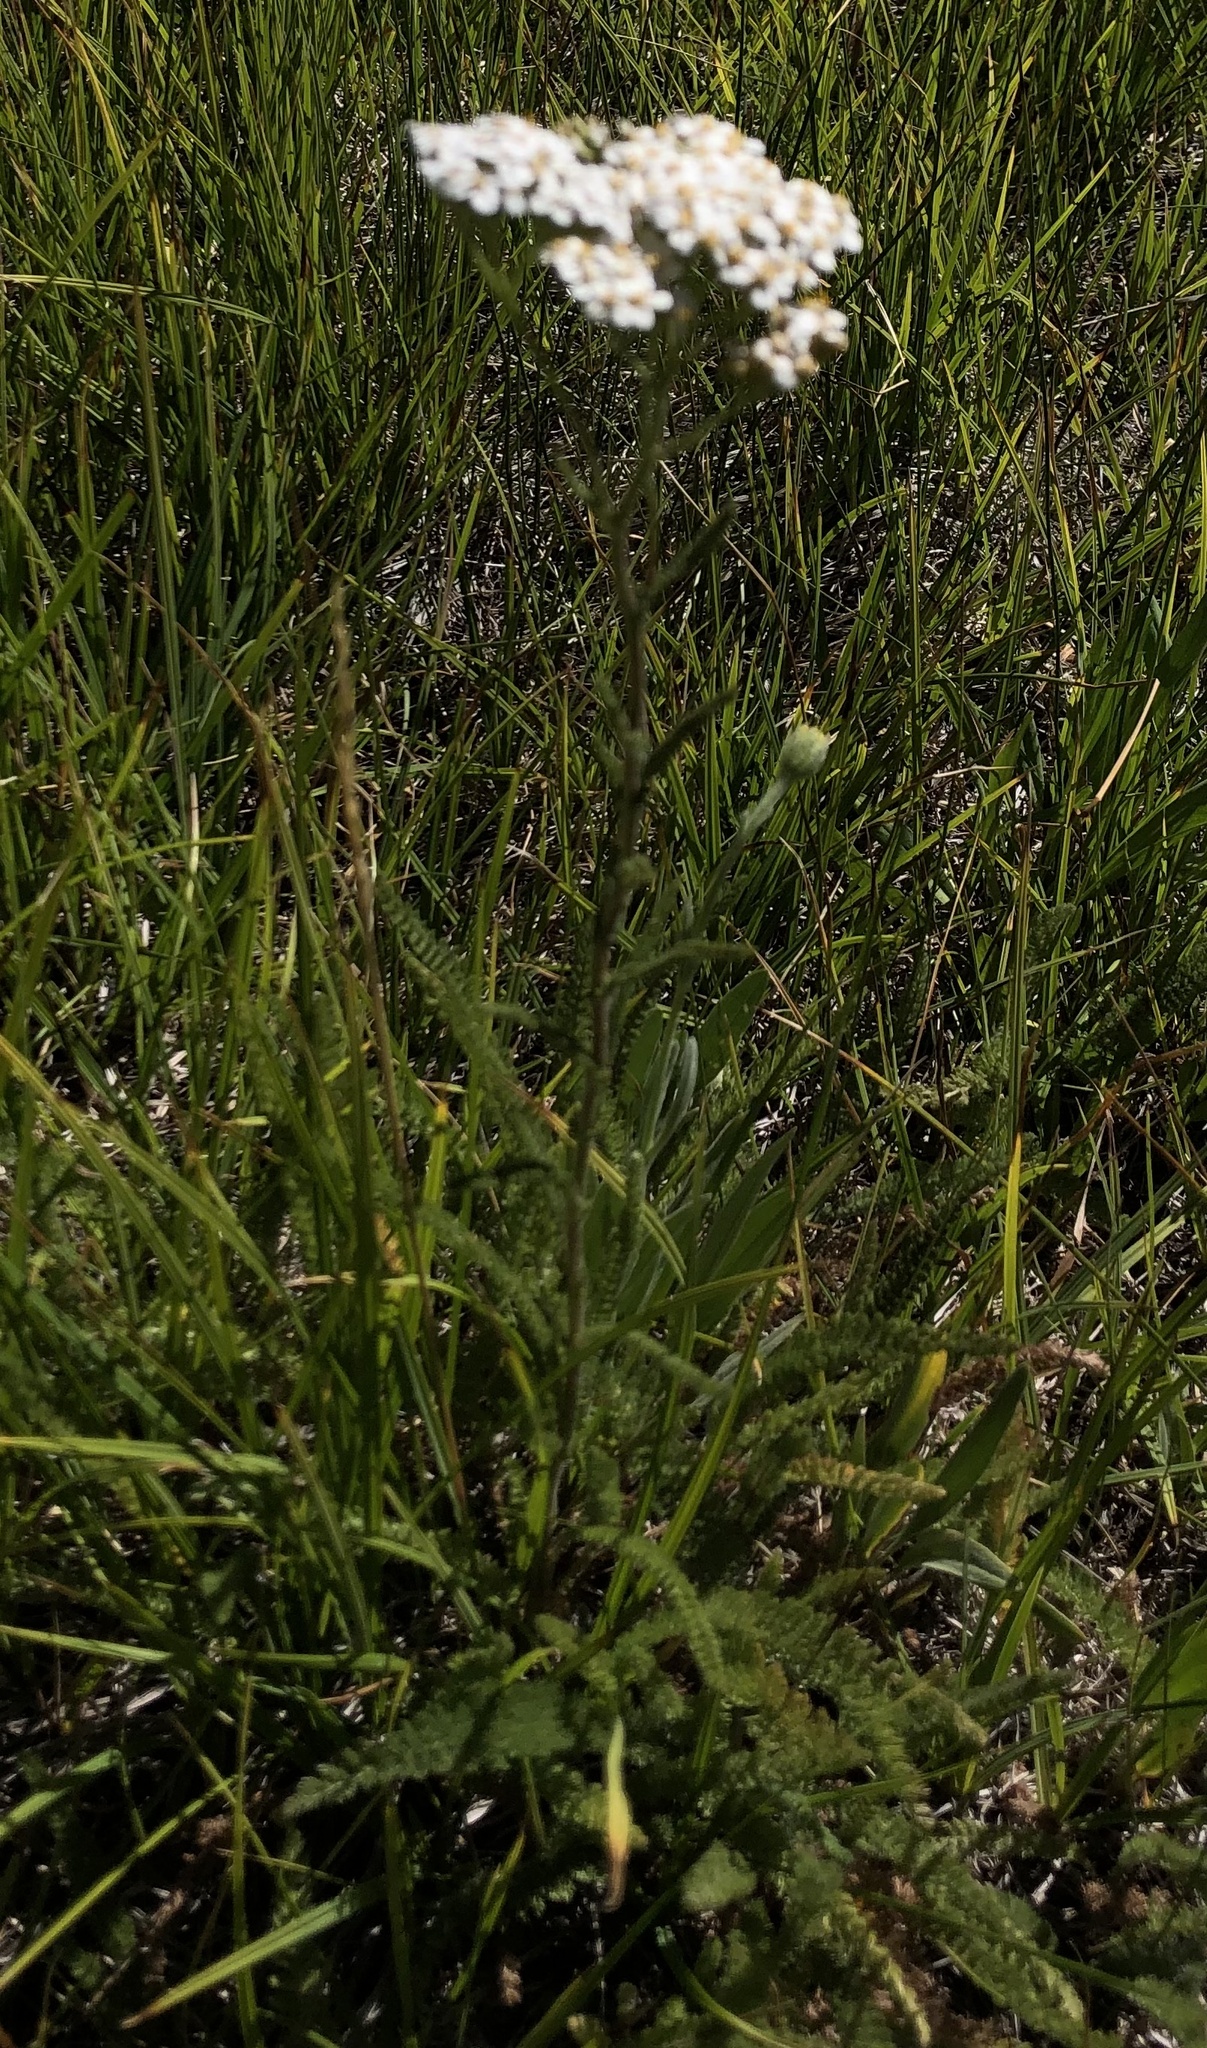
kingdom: Plantae
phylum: Tracheophyta
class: Magnoliopsida
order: Asterales
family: Asteraceae
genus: Achillea
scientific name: Achillea millefolium
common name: Yarrow
